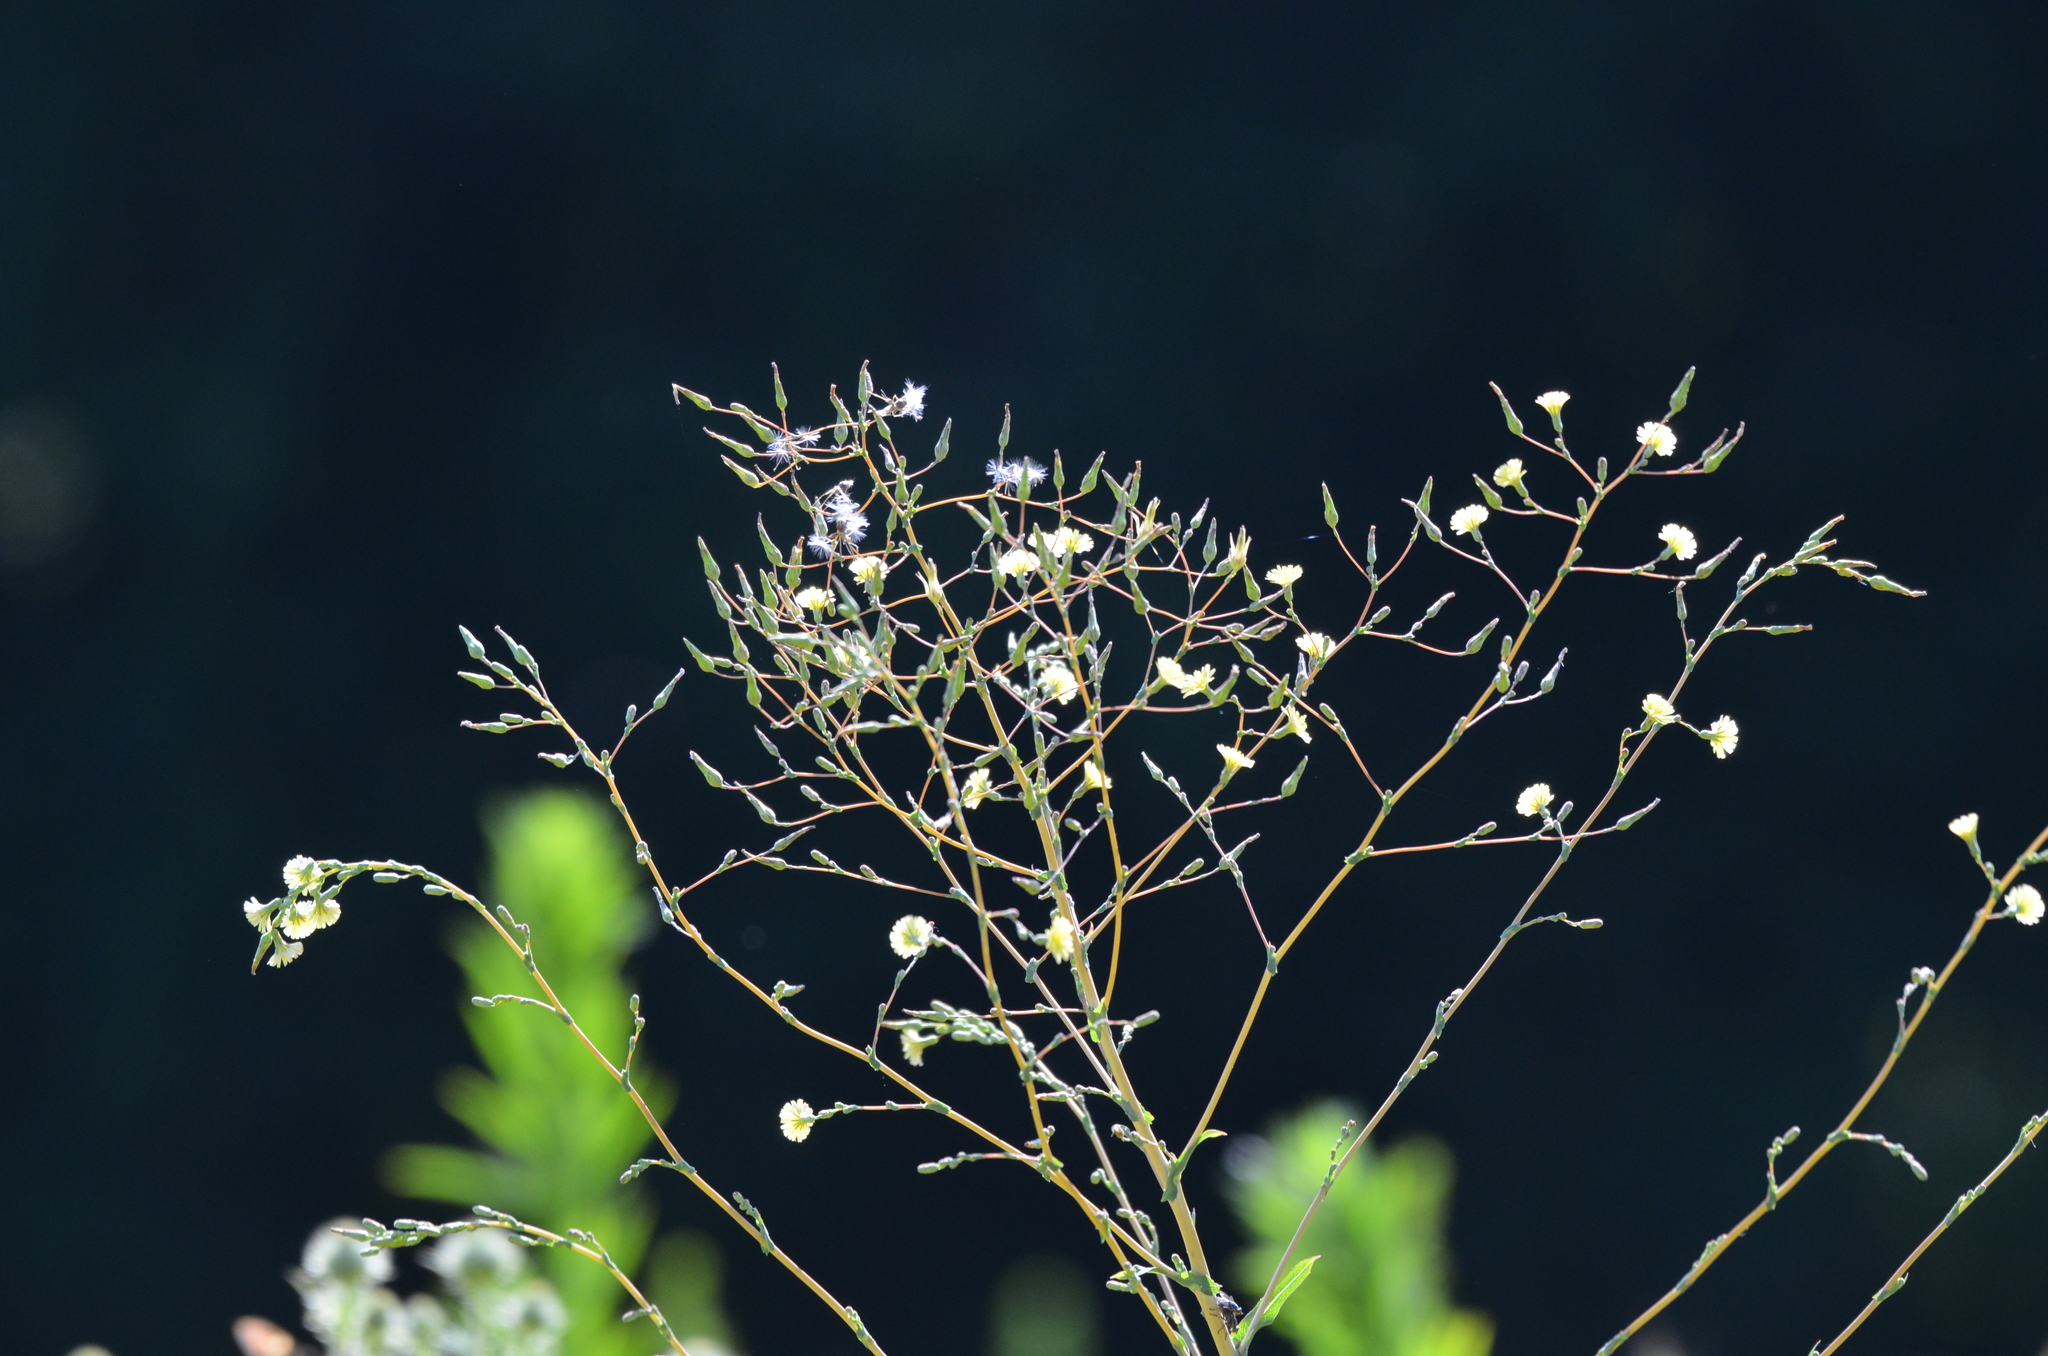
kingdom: Plantae
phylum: Tracheophyta
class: Magnoliopsida
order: Asterales
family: Asteraceae
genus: Lactuca
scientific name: Lactuca serriola
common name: Prickly lettuce
